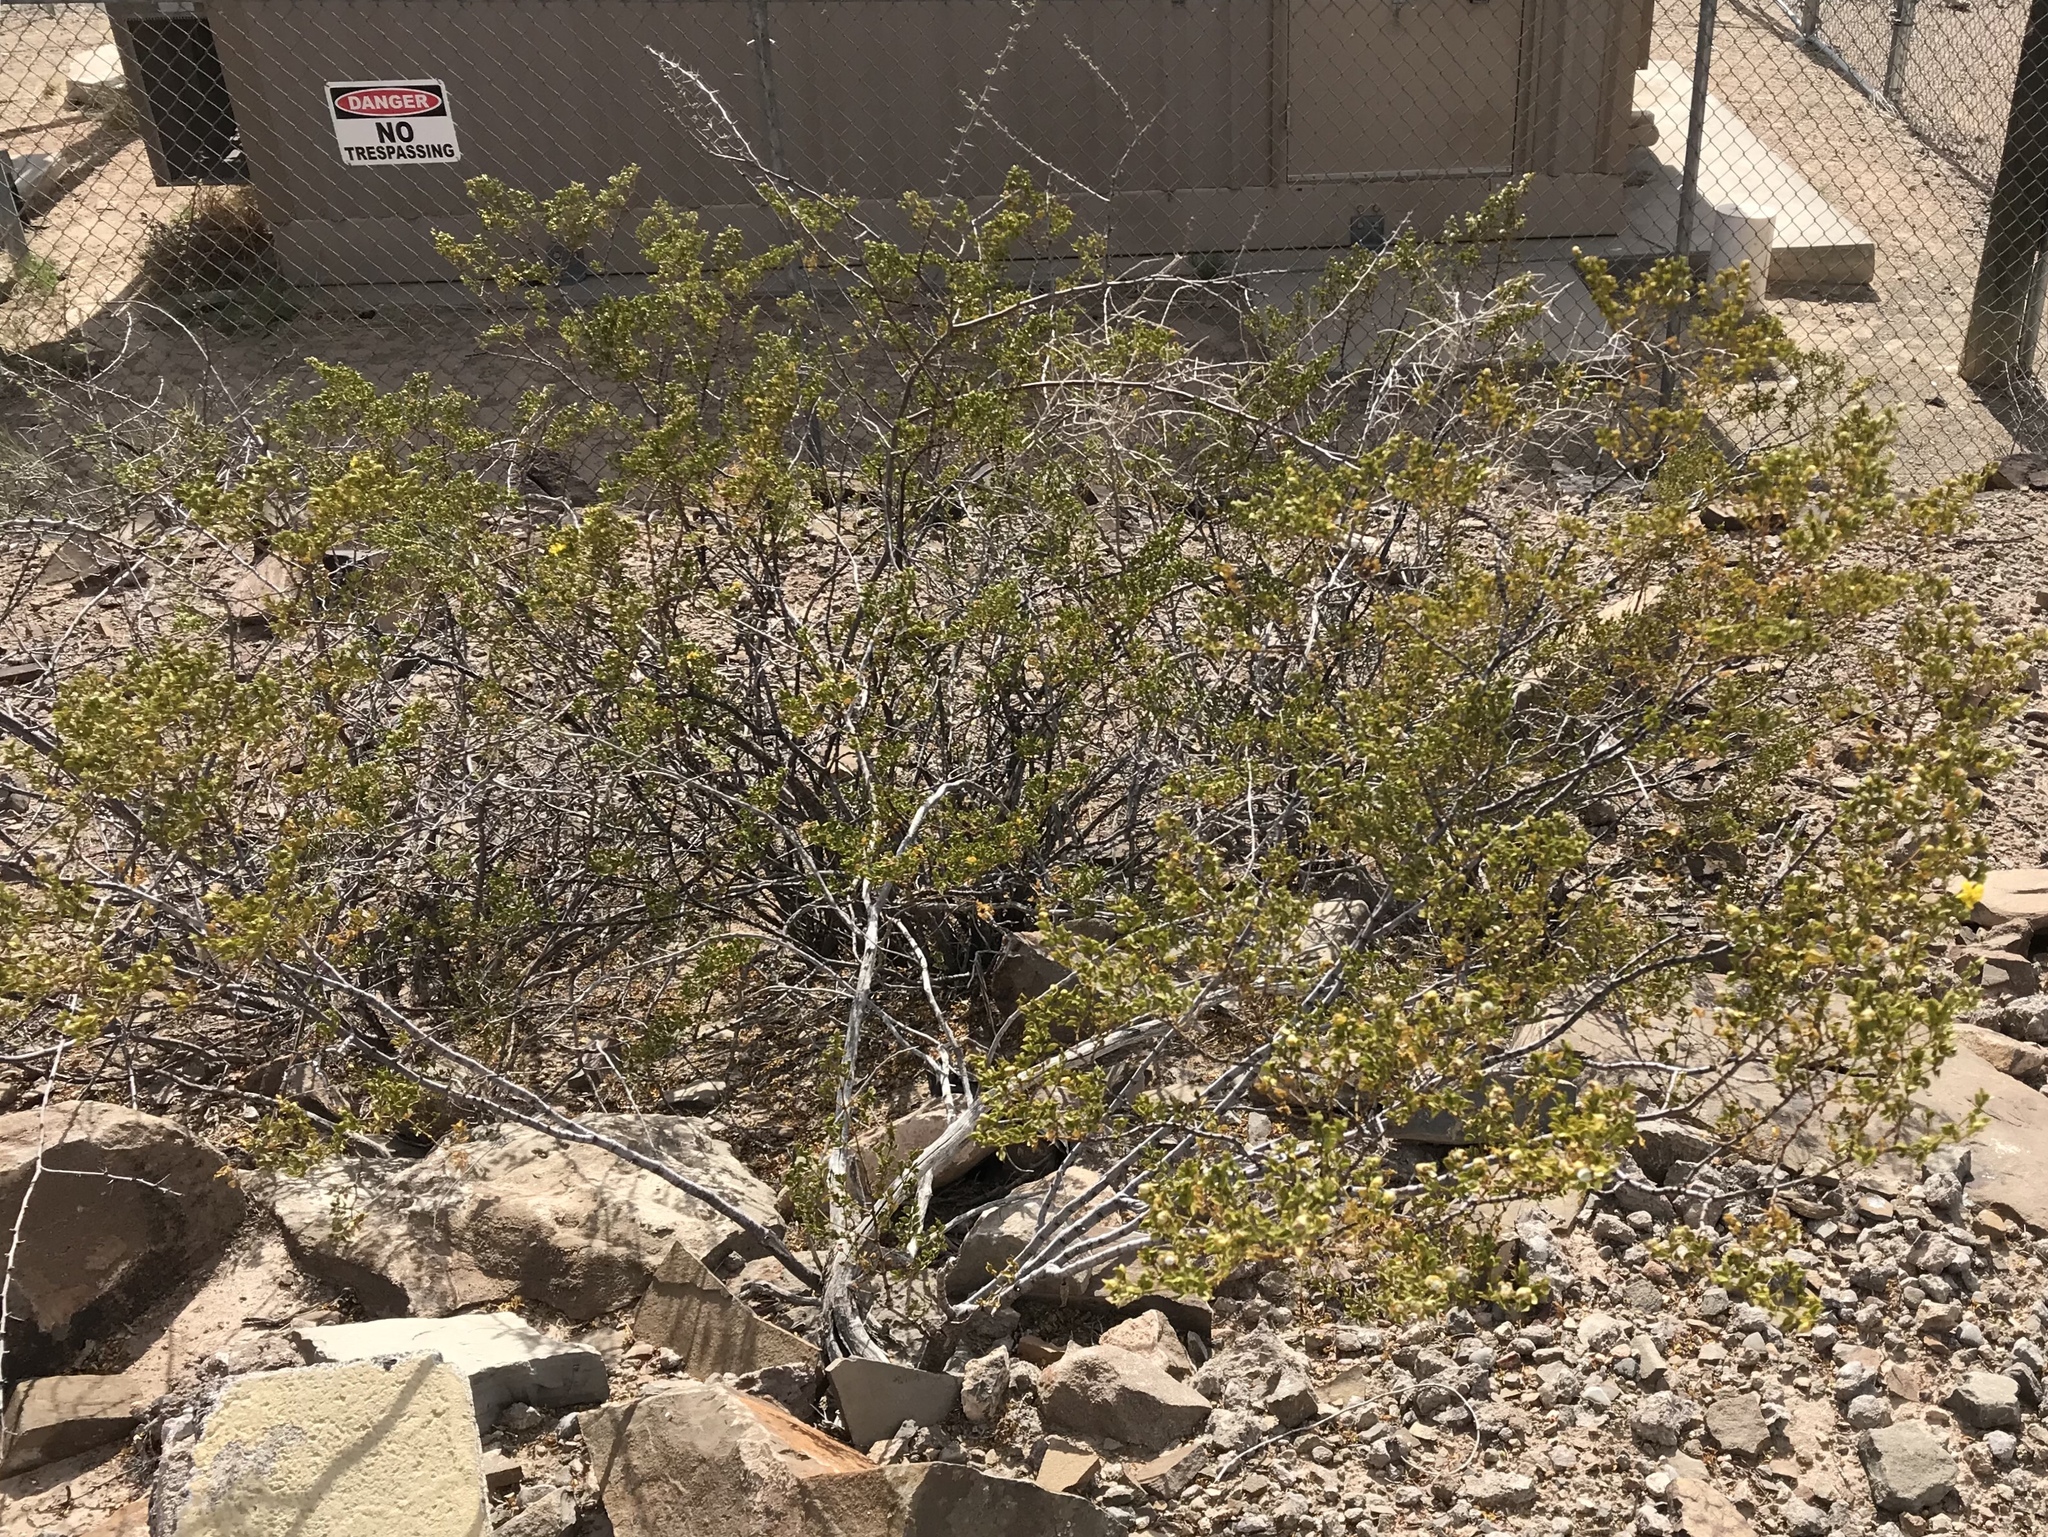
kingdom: Plantae
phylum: Tracheophyta
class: Magnoliopsida
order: Zygophyllales
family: Zygophyllaceae
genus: Larrea
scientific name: Larrea tridentata
